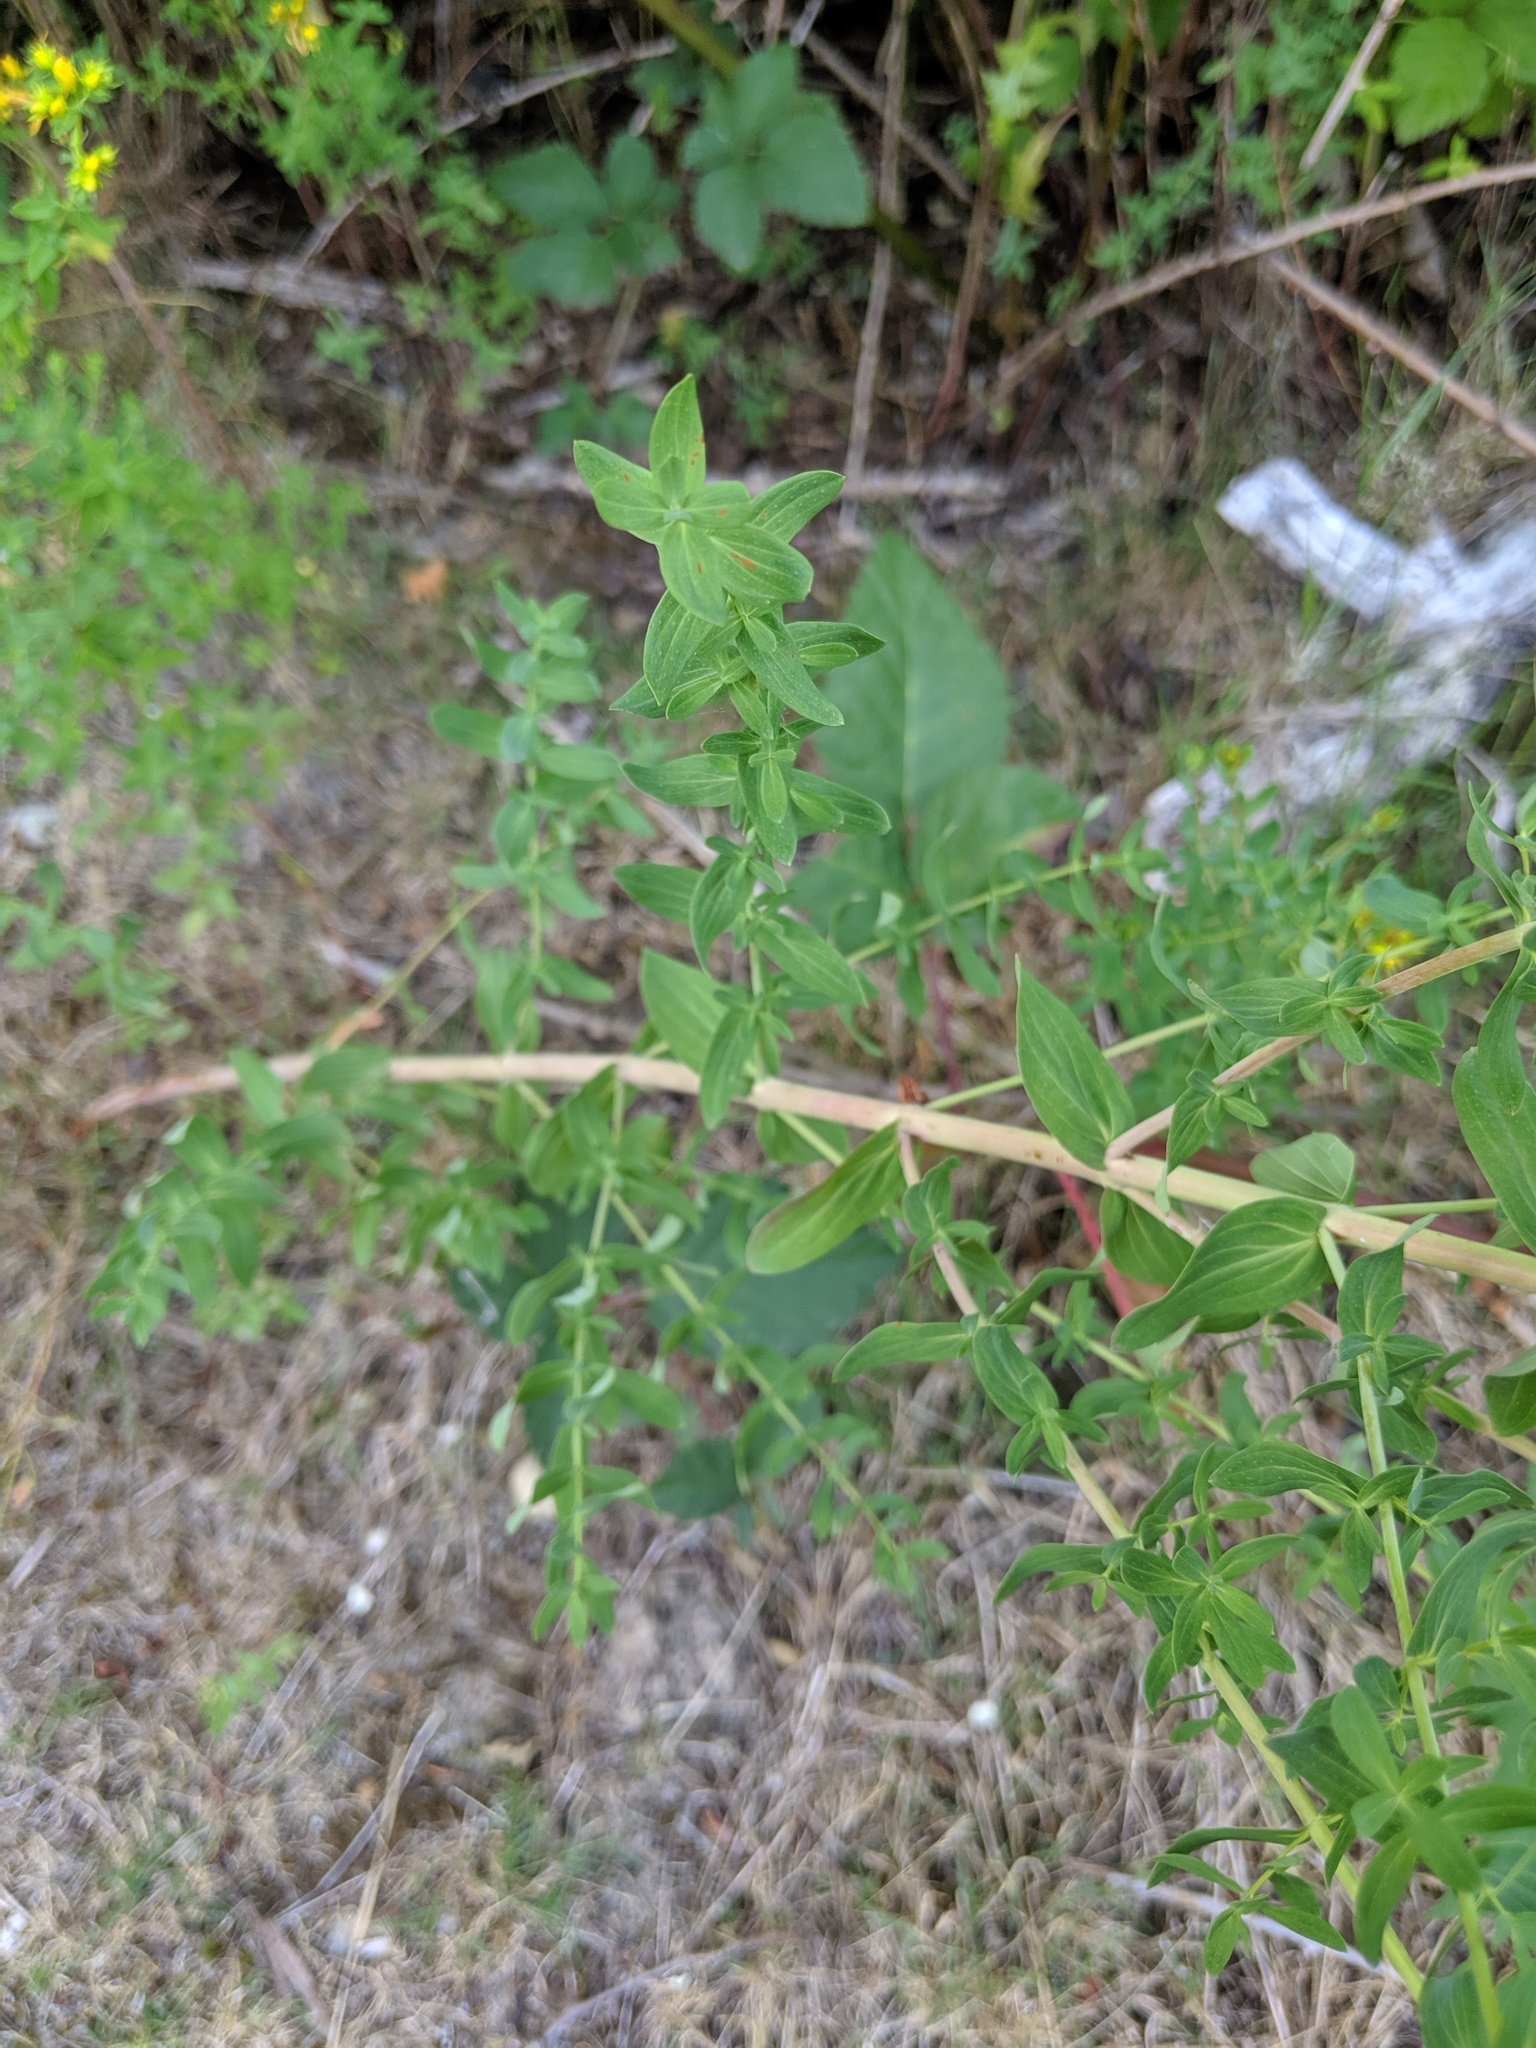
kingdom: Plantae
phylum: Tracheophyta
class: Magnoliopsida
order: Malpighiales
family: Hypericaceae
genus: Hypericum
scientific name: Hypericum perforatum
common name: Common st. johnswort
